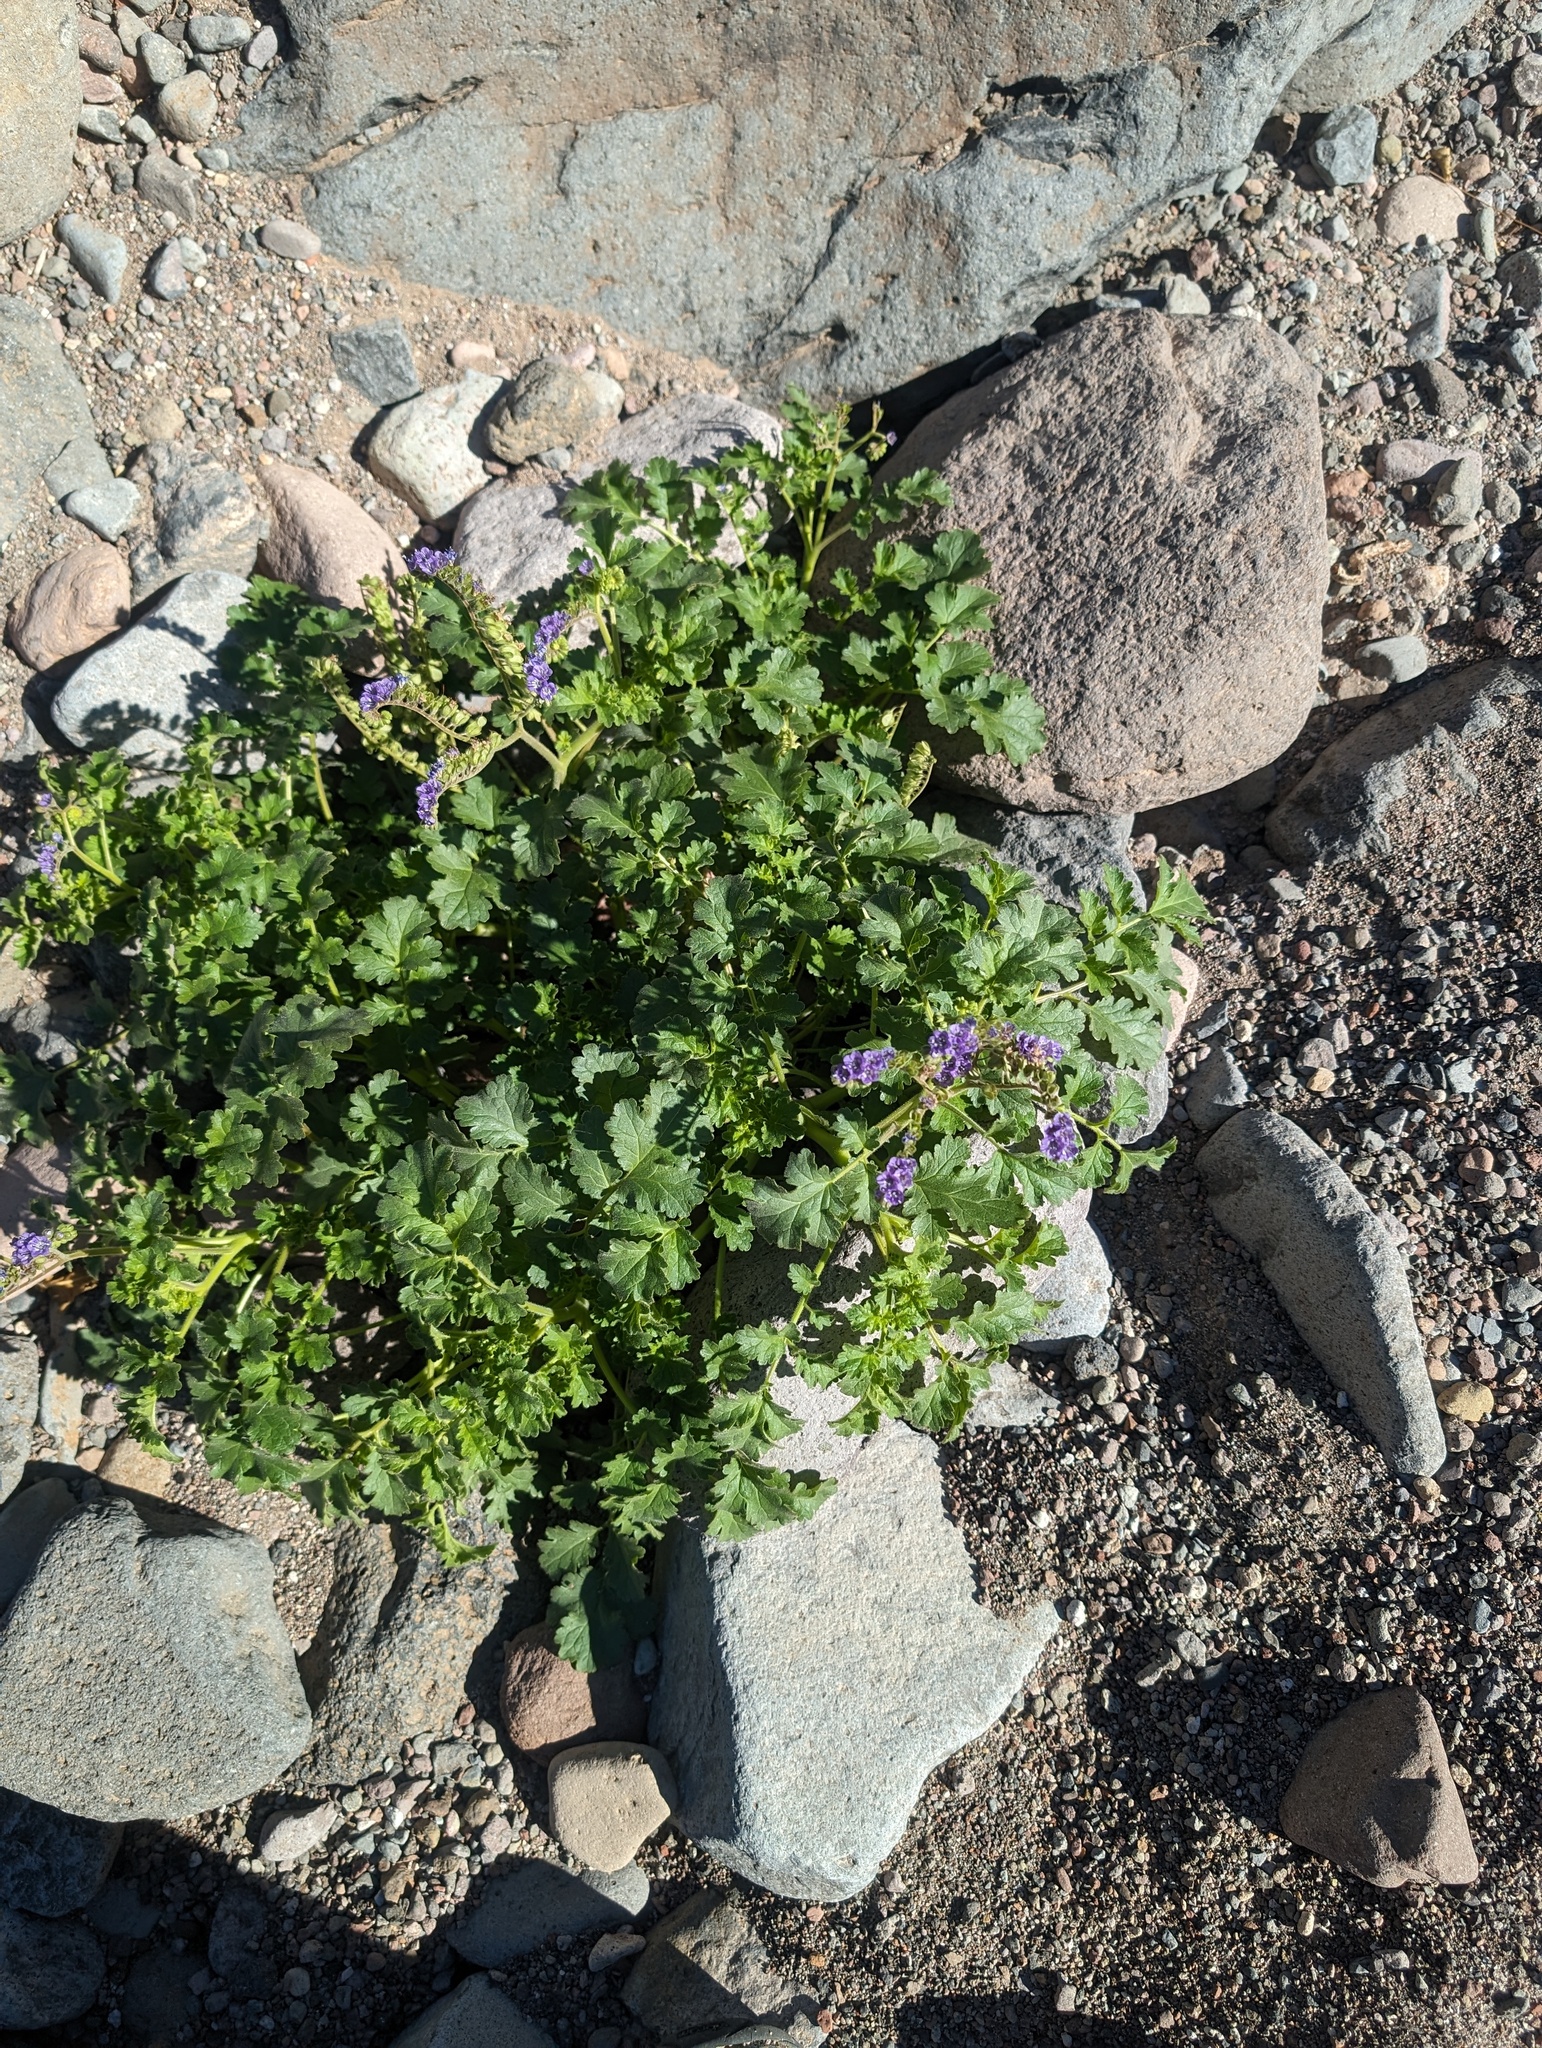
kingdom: Plantae
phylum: Tracheophyta
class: Magnoliopsida
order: Boraginales
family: Hydrophyllaceae
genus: Phacelia
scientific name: Phacelia scariosa
